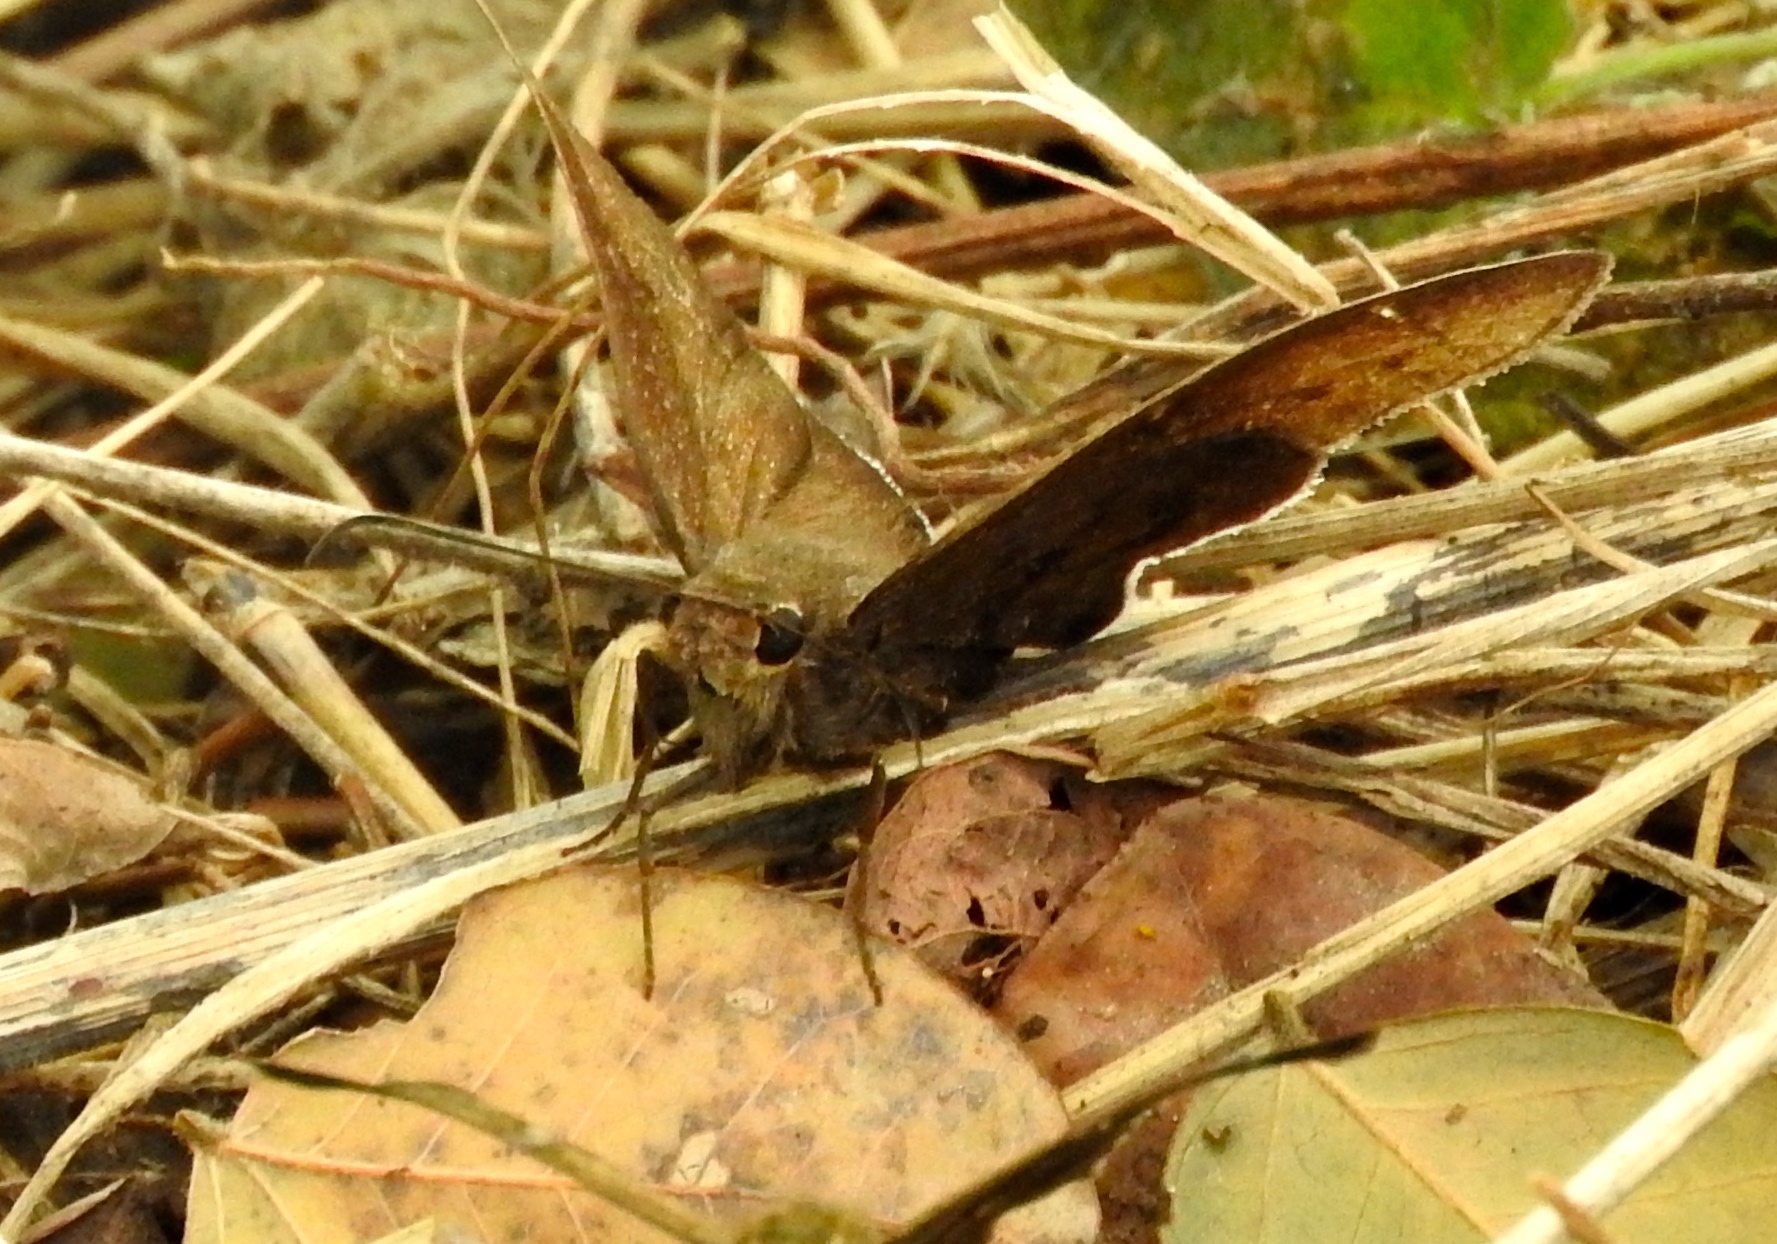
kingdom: Animalia
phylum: Arthropoda
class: Insecta
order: Lepidoptera
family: Hesperiidae
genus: Spicauda
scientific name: Spicauda
